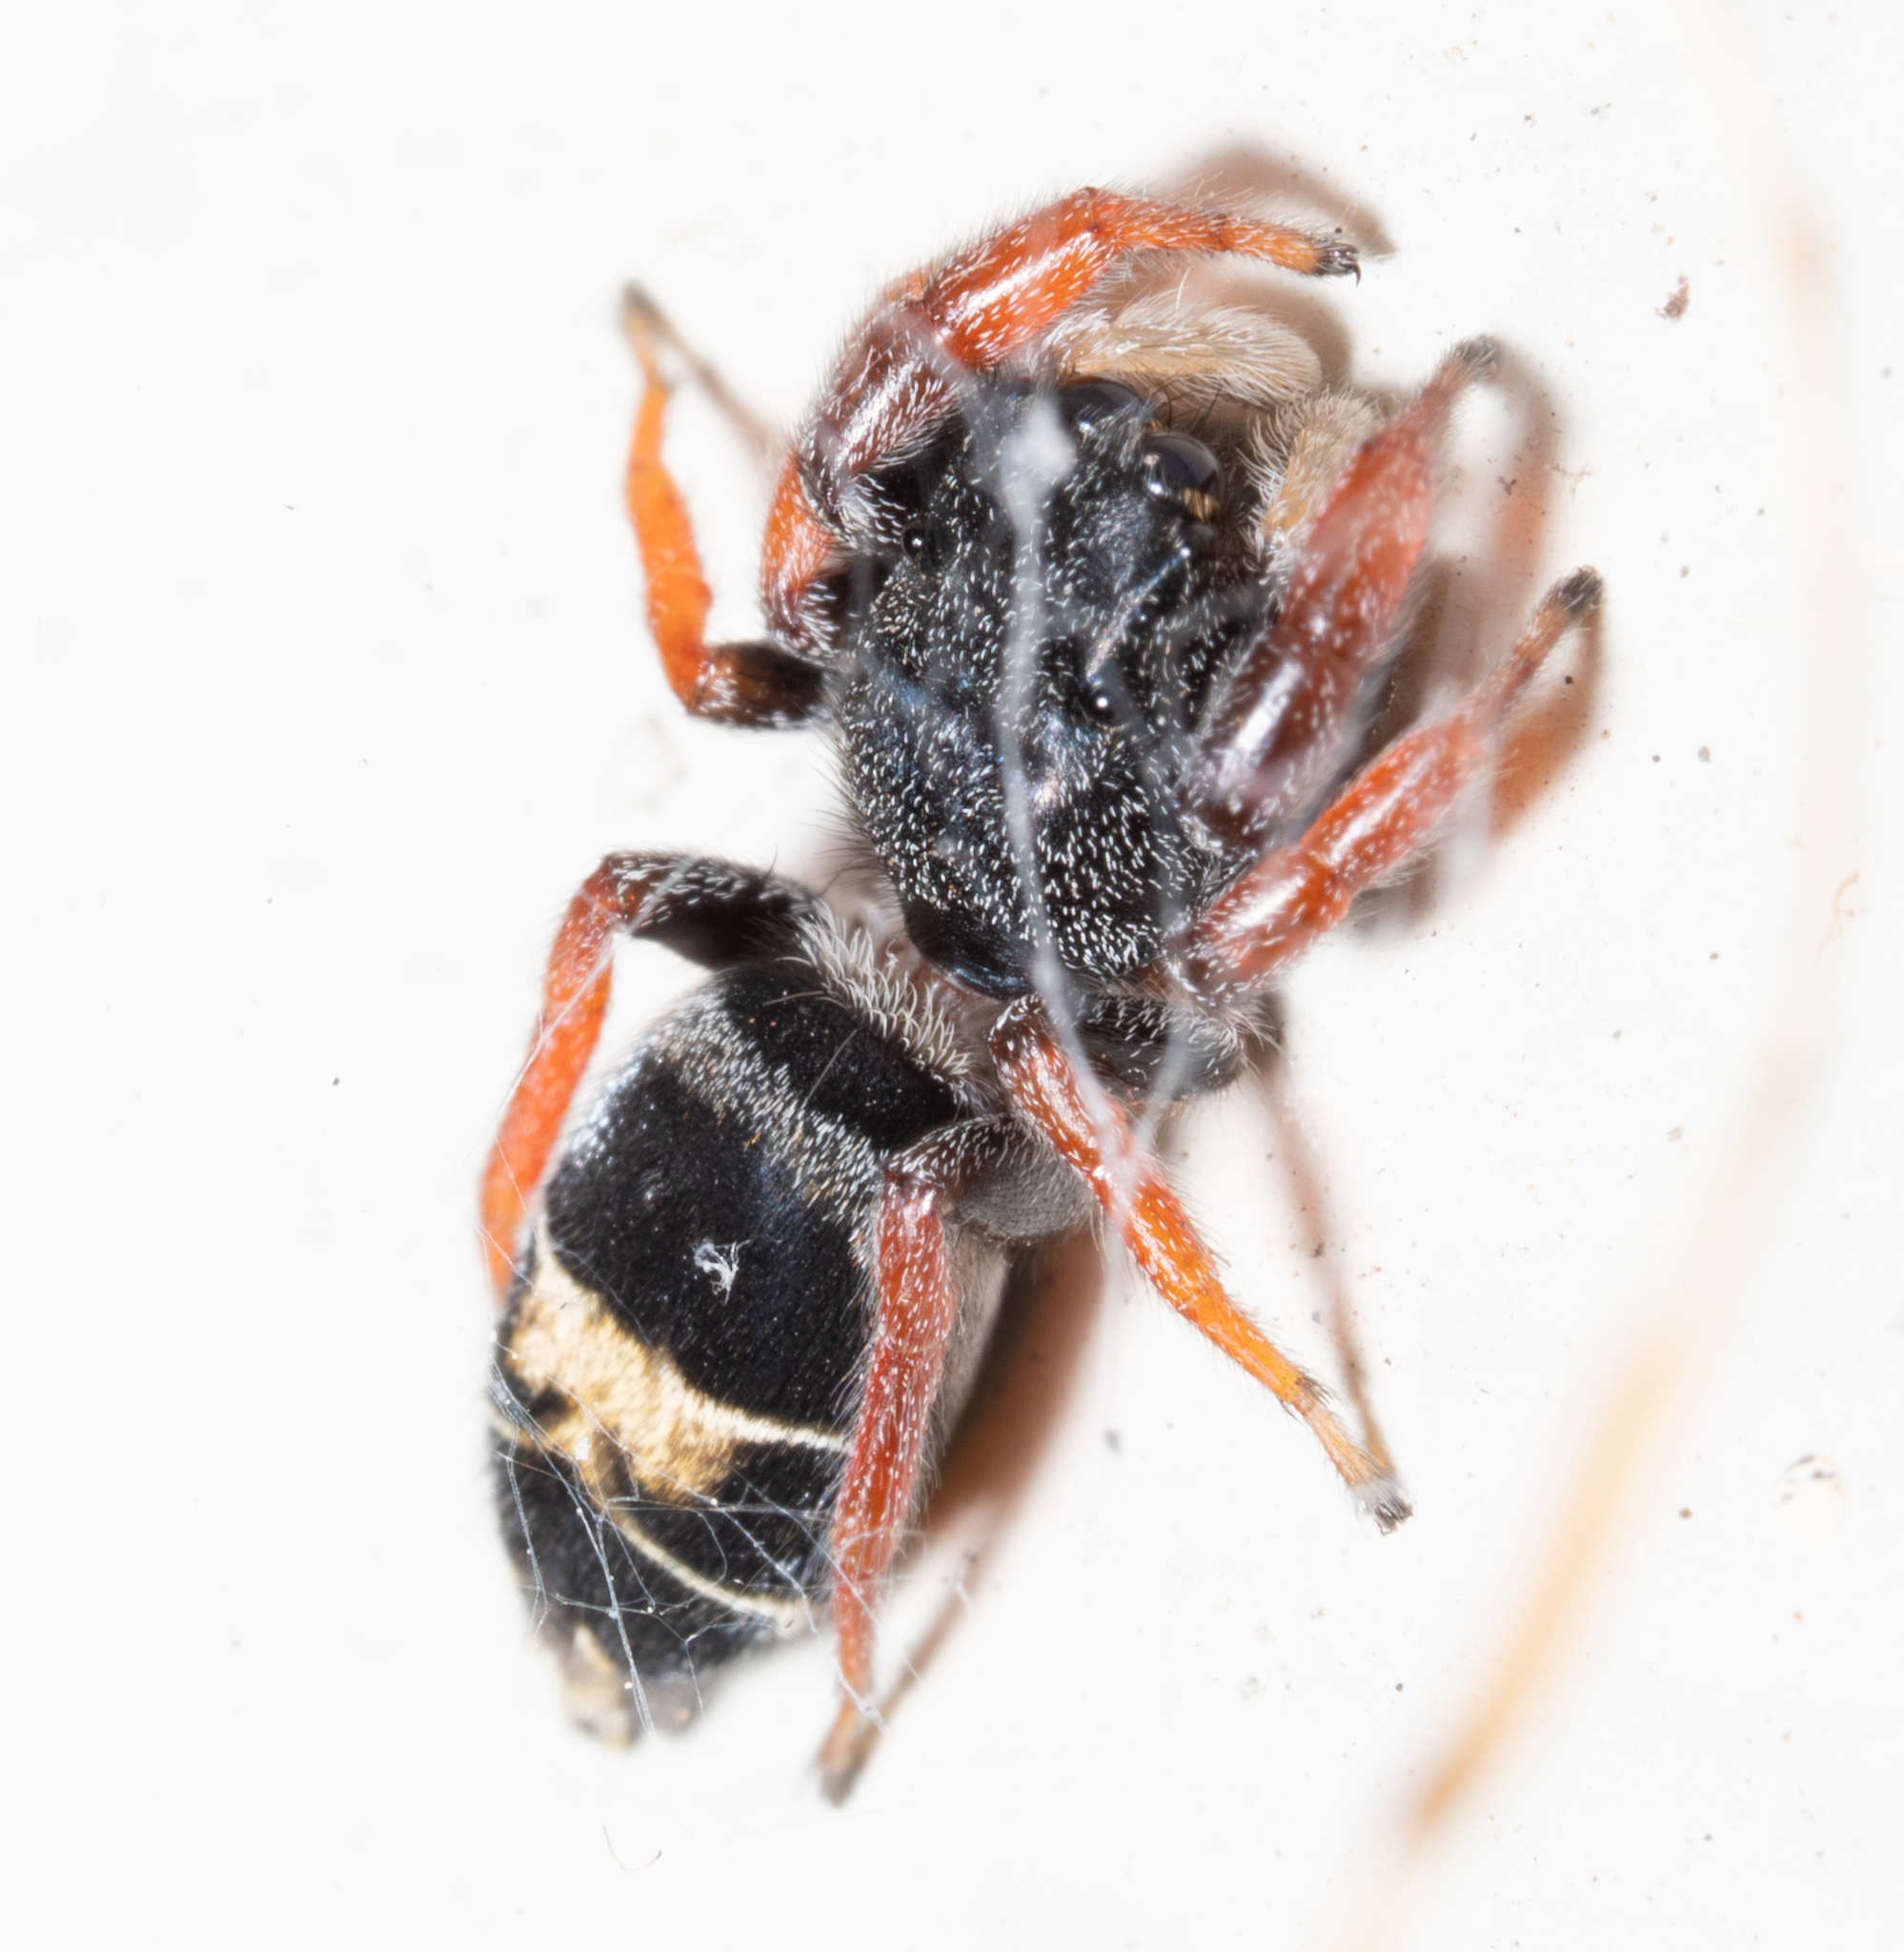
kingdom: Animalia
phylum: Arthropoda
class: Arachnida
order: Araneae
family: Salticidae
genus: Apricia
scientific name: Apricia jovialis
